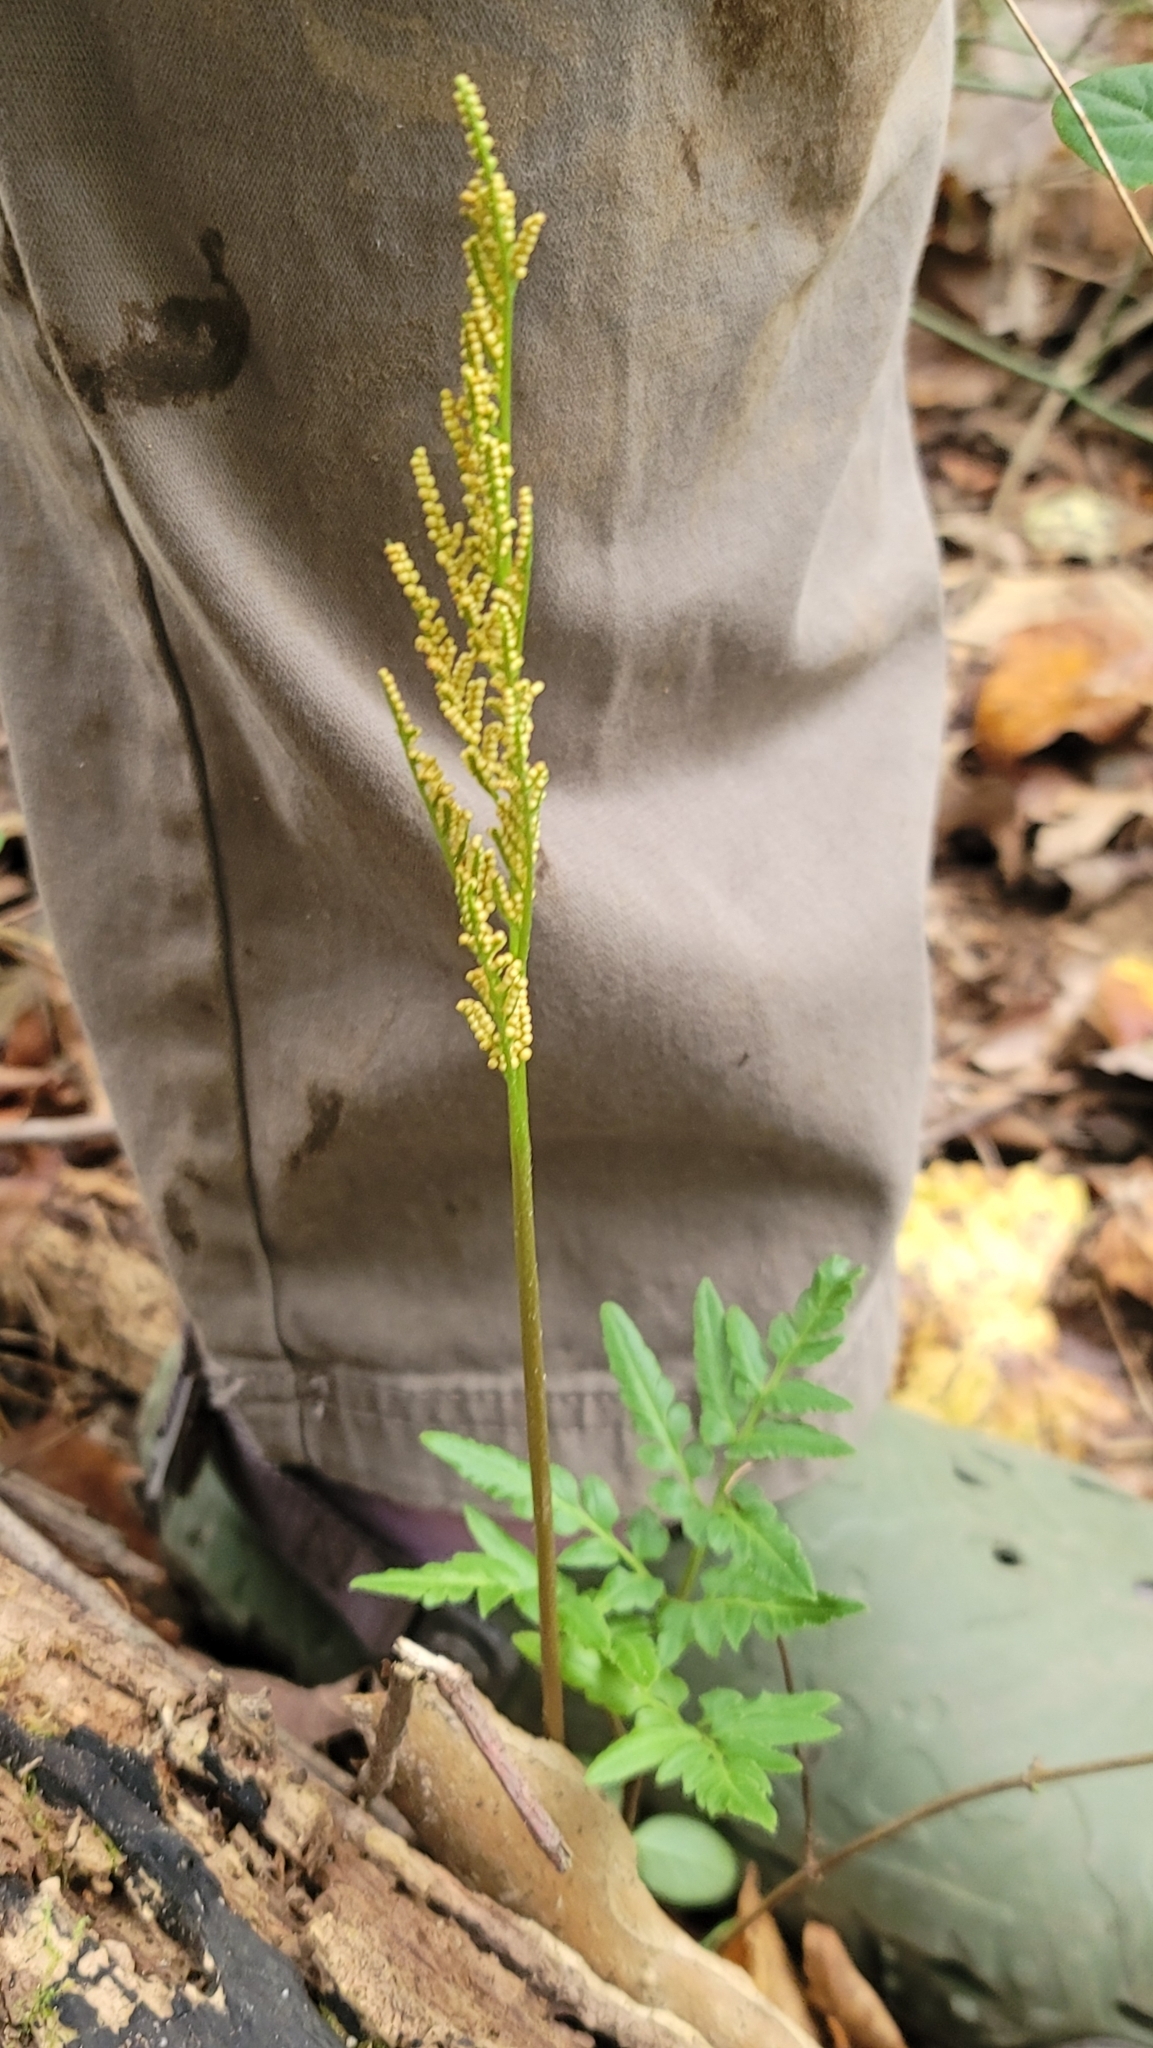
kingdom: Plantae
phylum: Tracheophyta
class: Polypodiopsida
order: Ophioglossales
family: Ophioglossaceae
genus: Sceptridium
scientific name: Sceptridium biternatum
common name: Sparse-lobed grapefern
